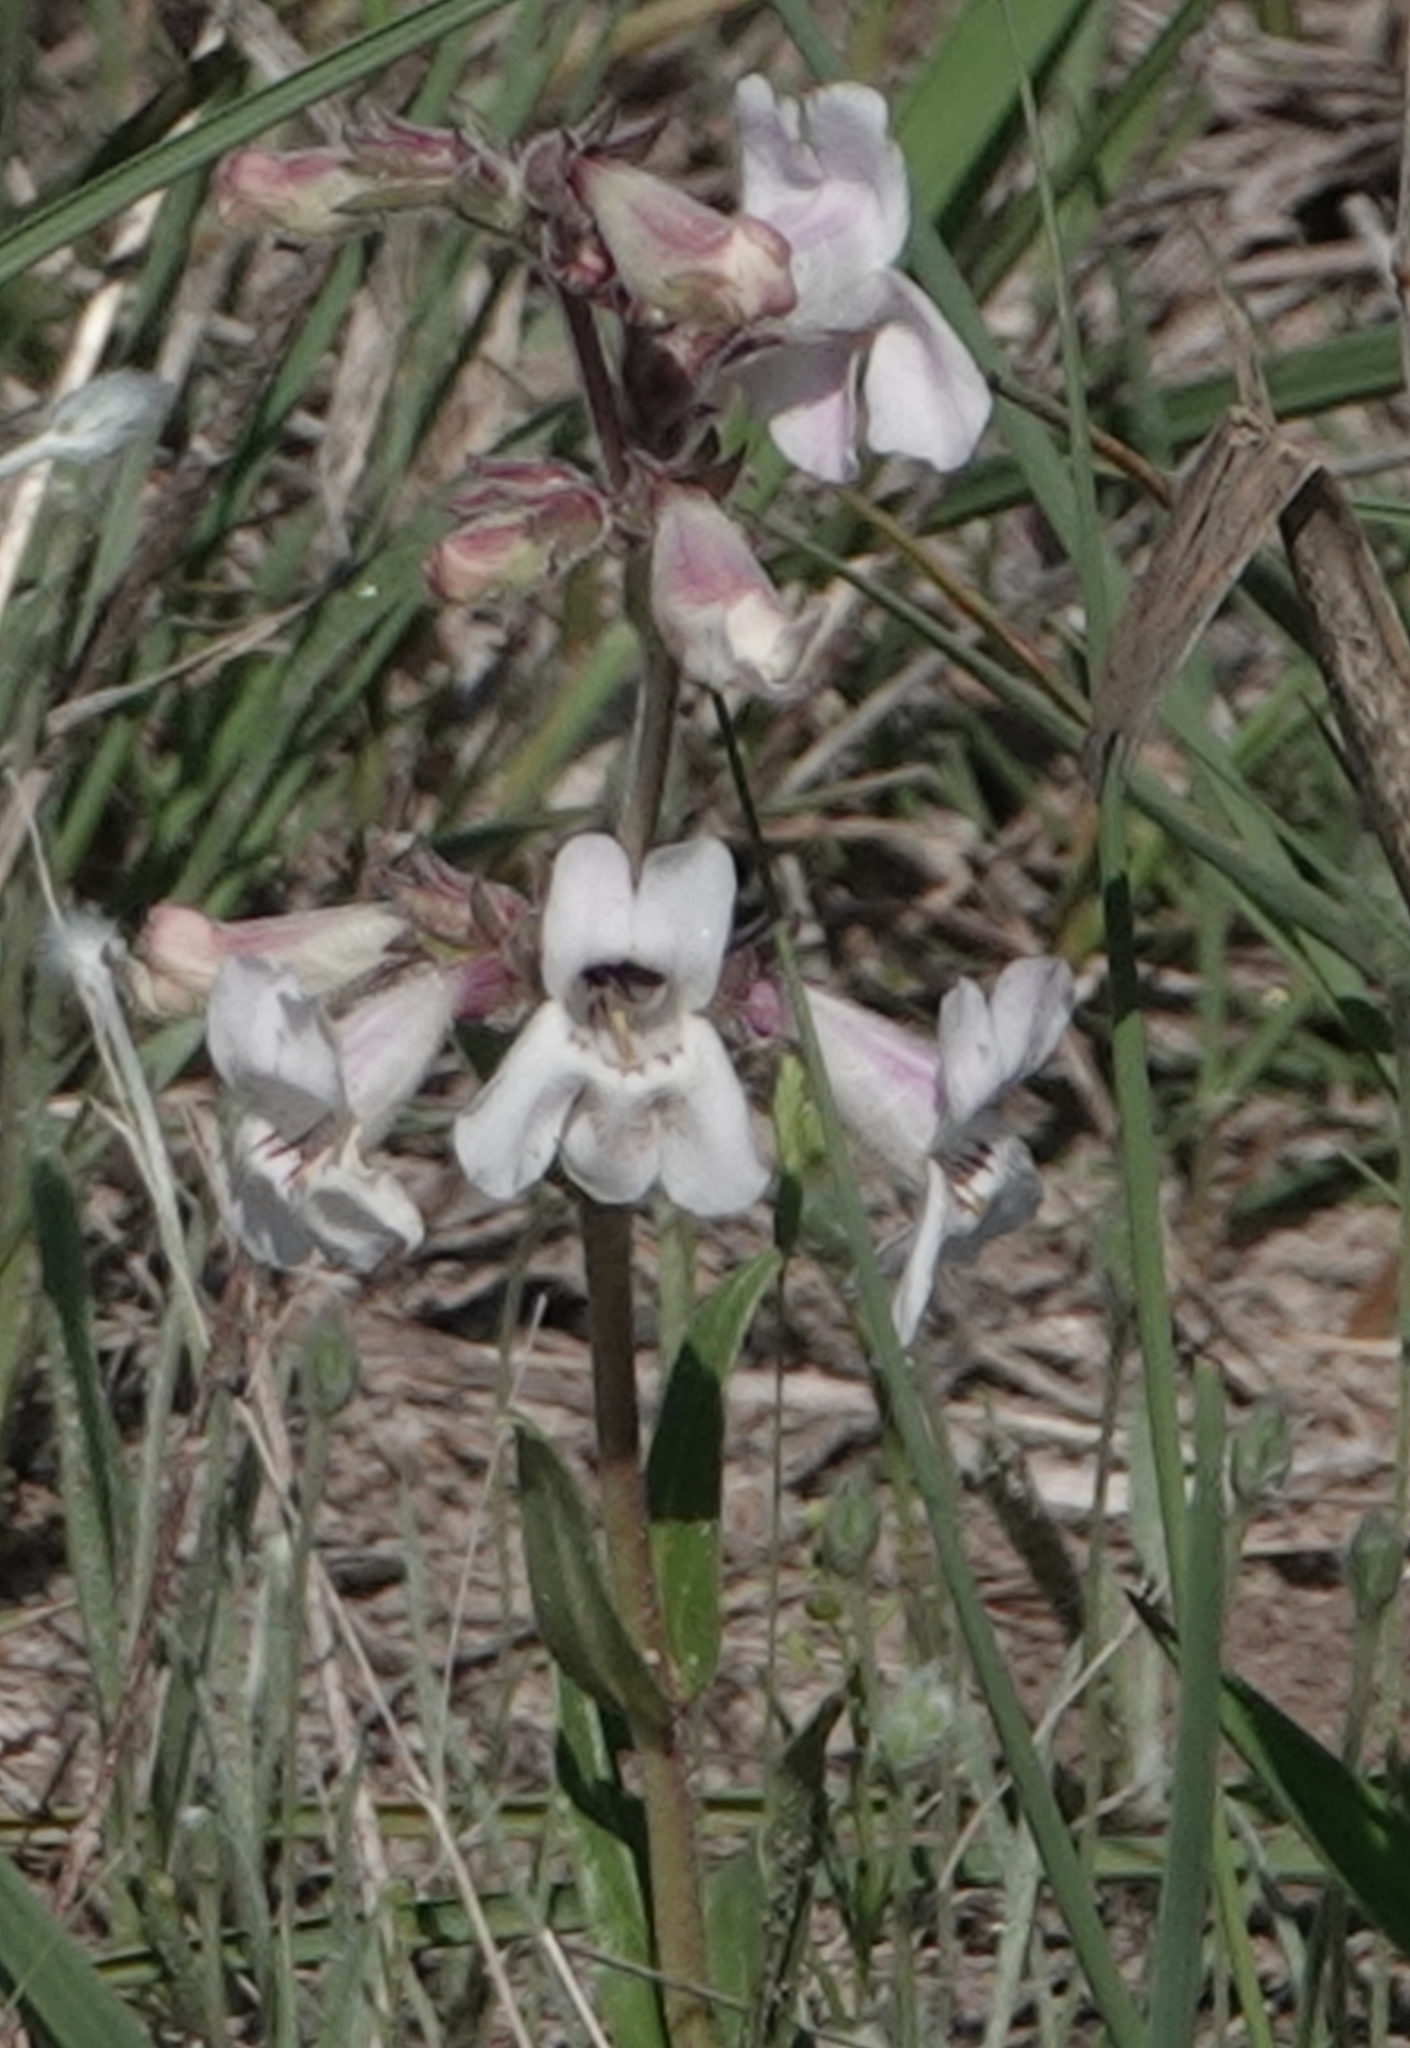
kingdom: Plantae
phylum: Tracheophyta
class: Magnoliopsida
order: Lamiales
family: Plantaginaceae
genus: Penstemon
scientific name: Penstemon albidus
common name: White beardtongue
